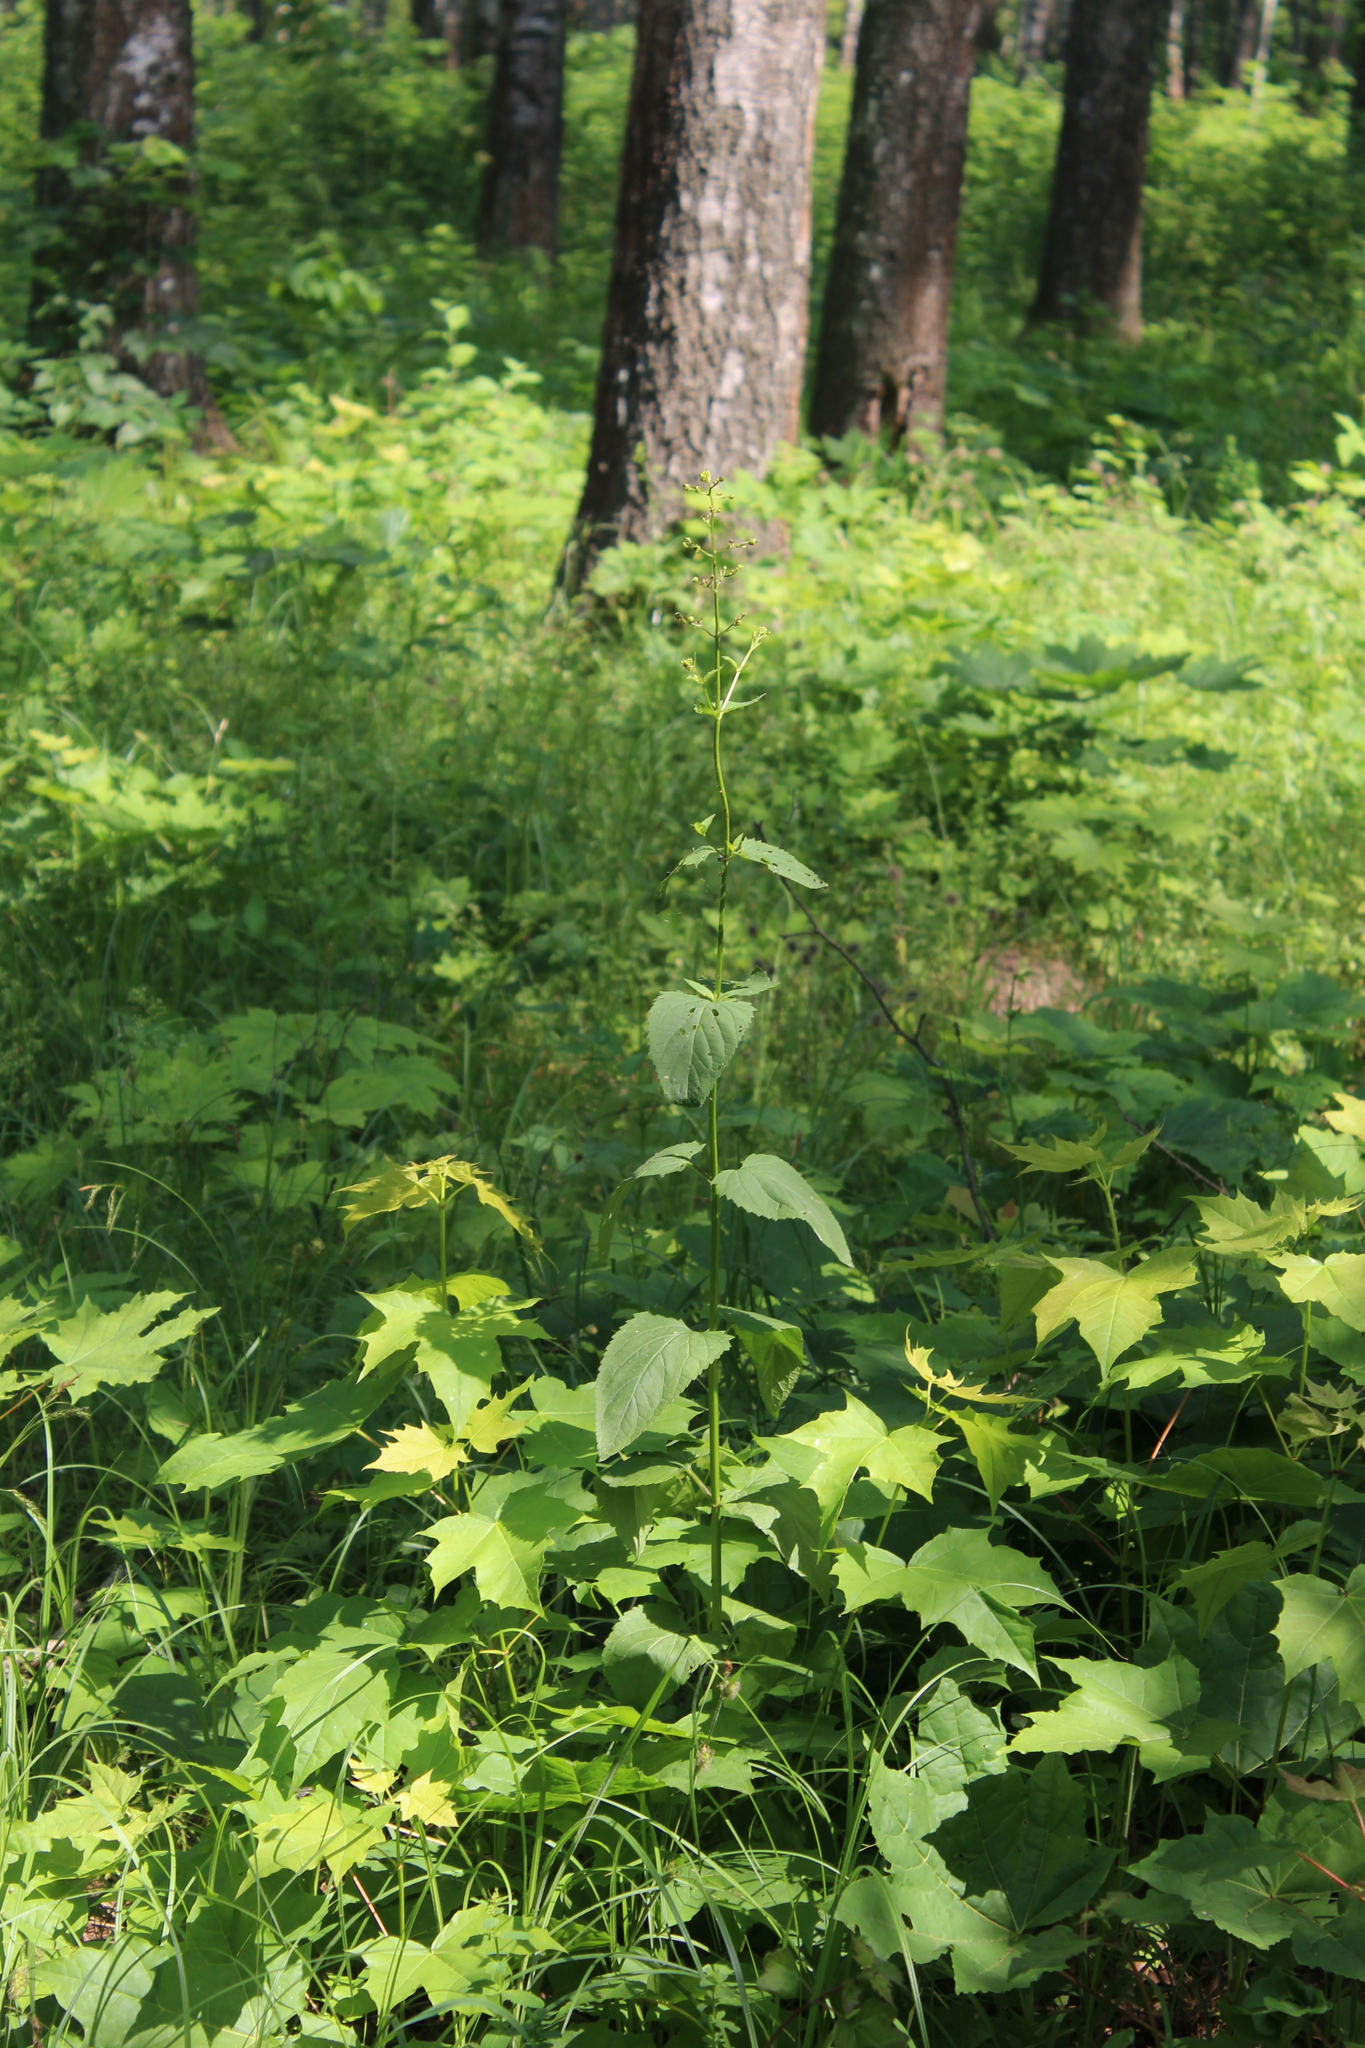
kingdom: Plantae
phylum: Tracheophyta
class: Magnoliopsida
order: Lamiales
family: Scrophulariaceae
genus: Scrophularia
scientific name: Scrophularia nodosa
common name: Common figwort
